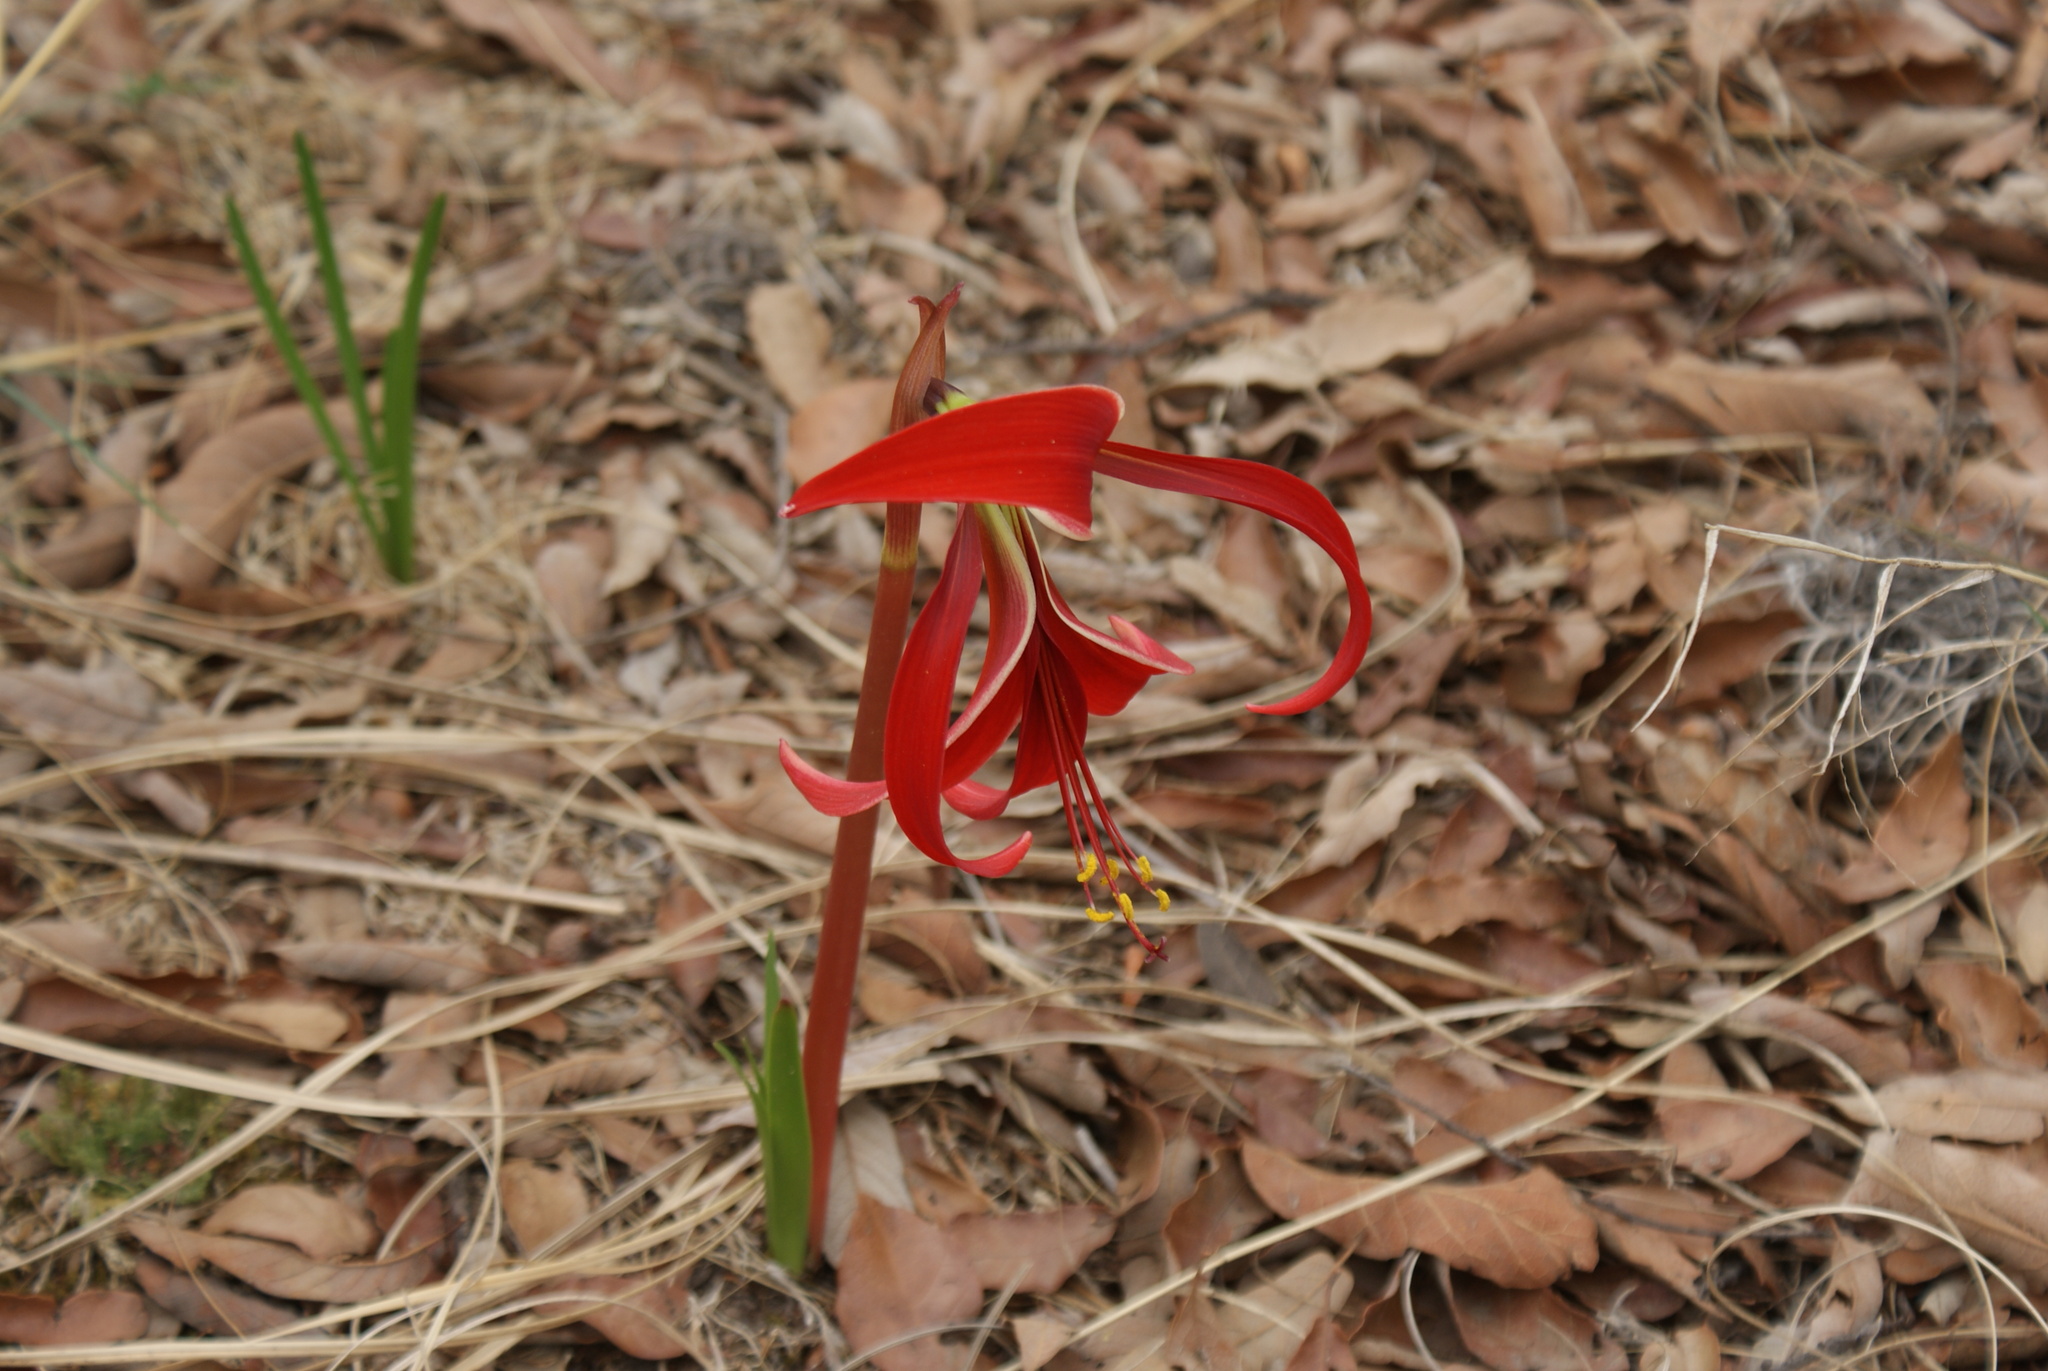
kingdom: Plantae
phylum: Tracheophyta
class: Liliopsida
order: Asparagales
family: Amaryllidaceae
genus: Sprekelia
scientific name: Sprekelia formosissima
